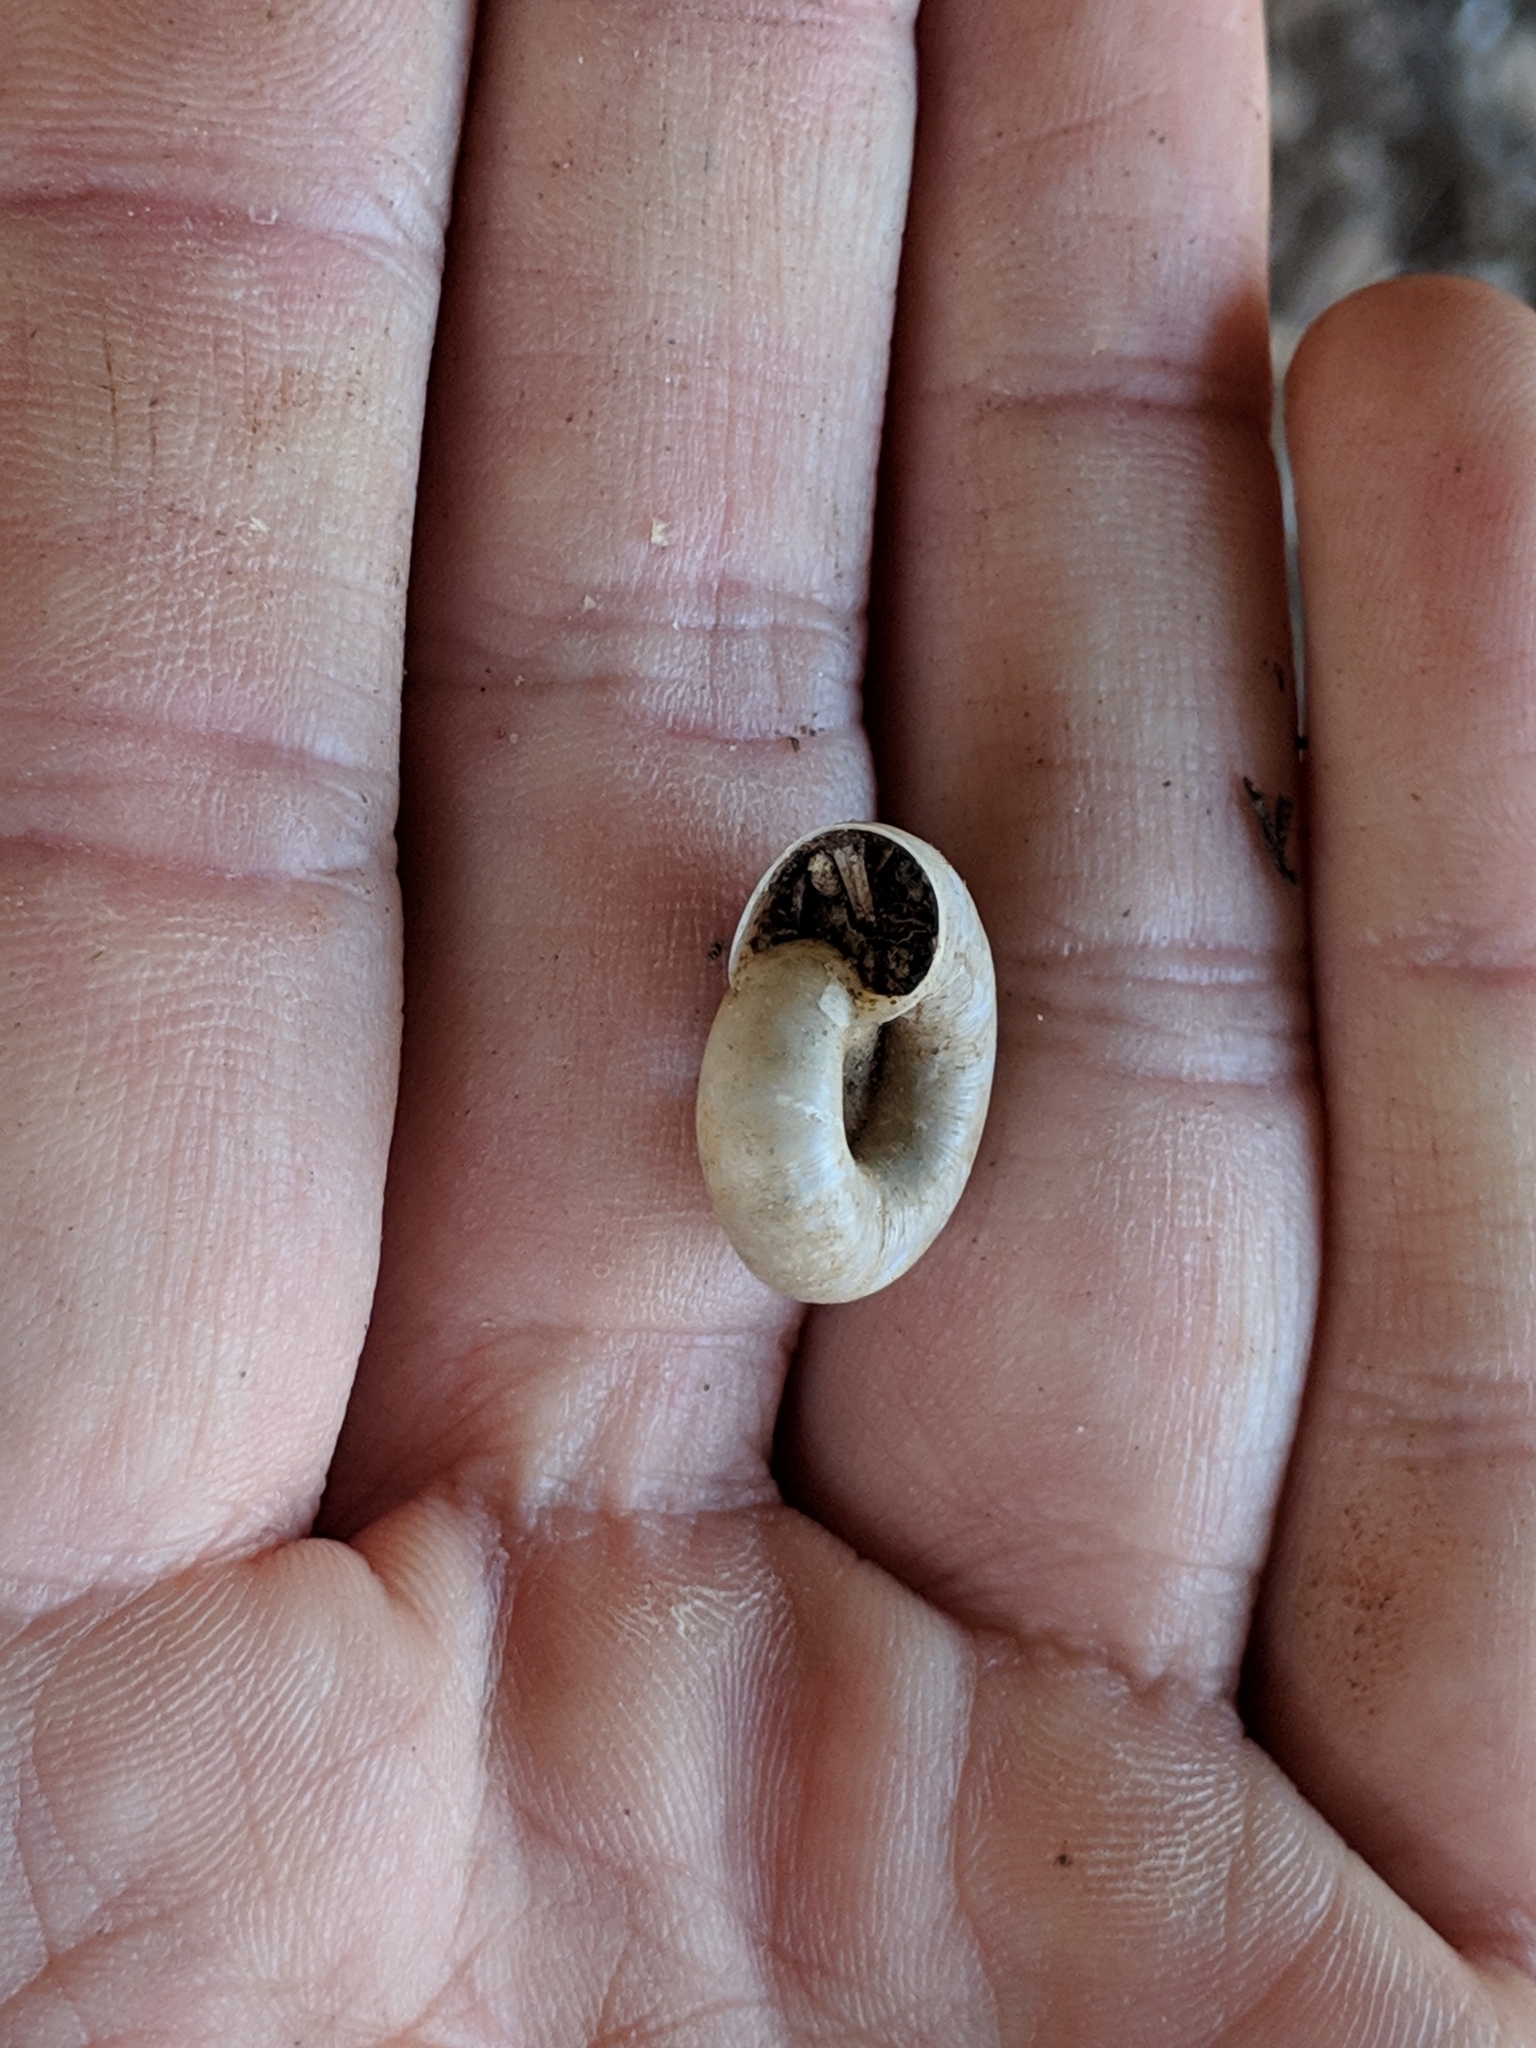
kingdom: Animalia
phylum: Mollusca
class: Gastropoda
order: Stylommatophora
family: Haplotrematidae
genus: Haplotrema
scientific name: Haplotrema concavum
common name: Gray-foot lancetooth
